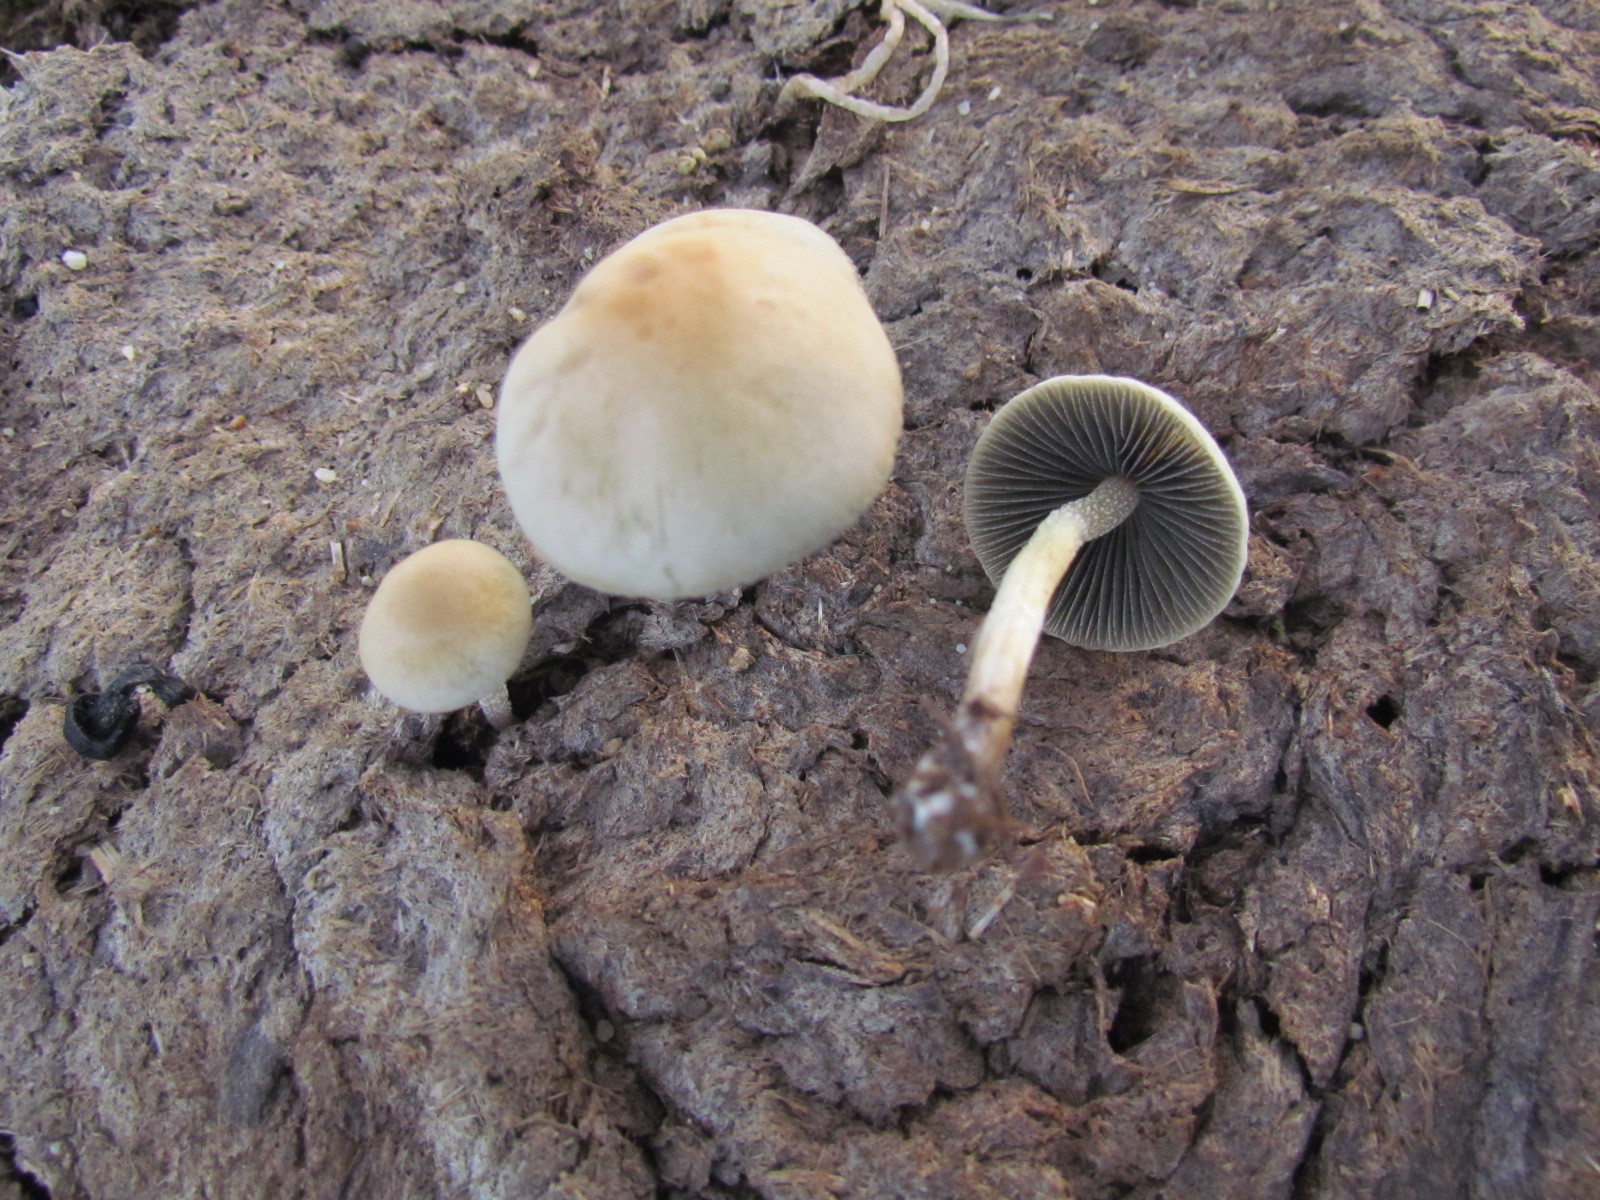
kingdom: Fungi
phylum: Basidiomycota
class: Agaricomycetes
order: Agaricales
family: Bolbitiaceae
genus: Panaeolus
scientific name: Panaeolus cyanescens
